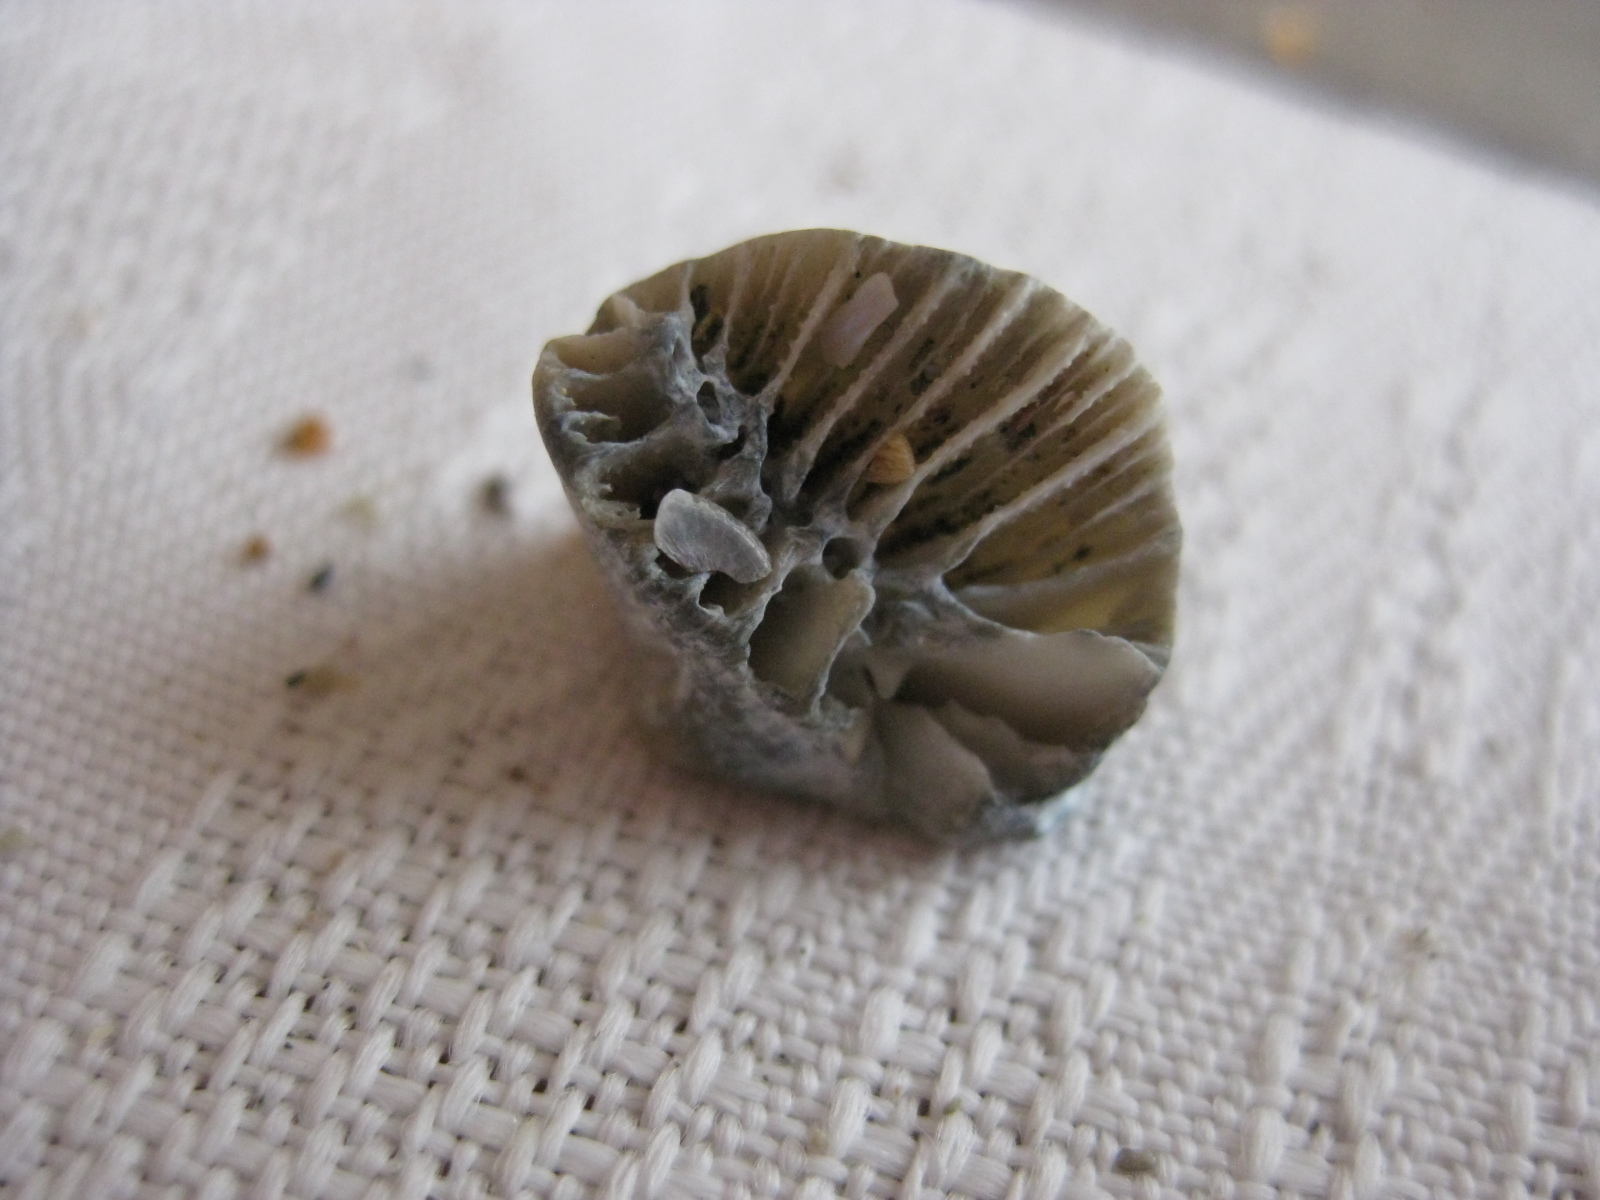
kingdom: Animalia
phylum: Cnidaria
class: Anthozoa
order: Scleractinia
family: Flabellidae
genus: Monomyces
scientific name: Monomyces rubrum
